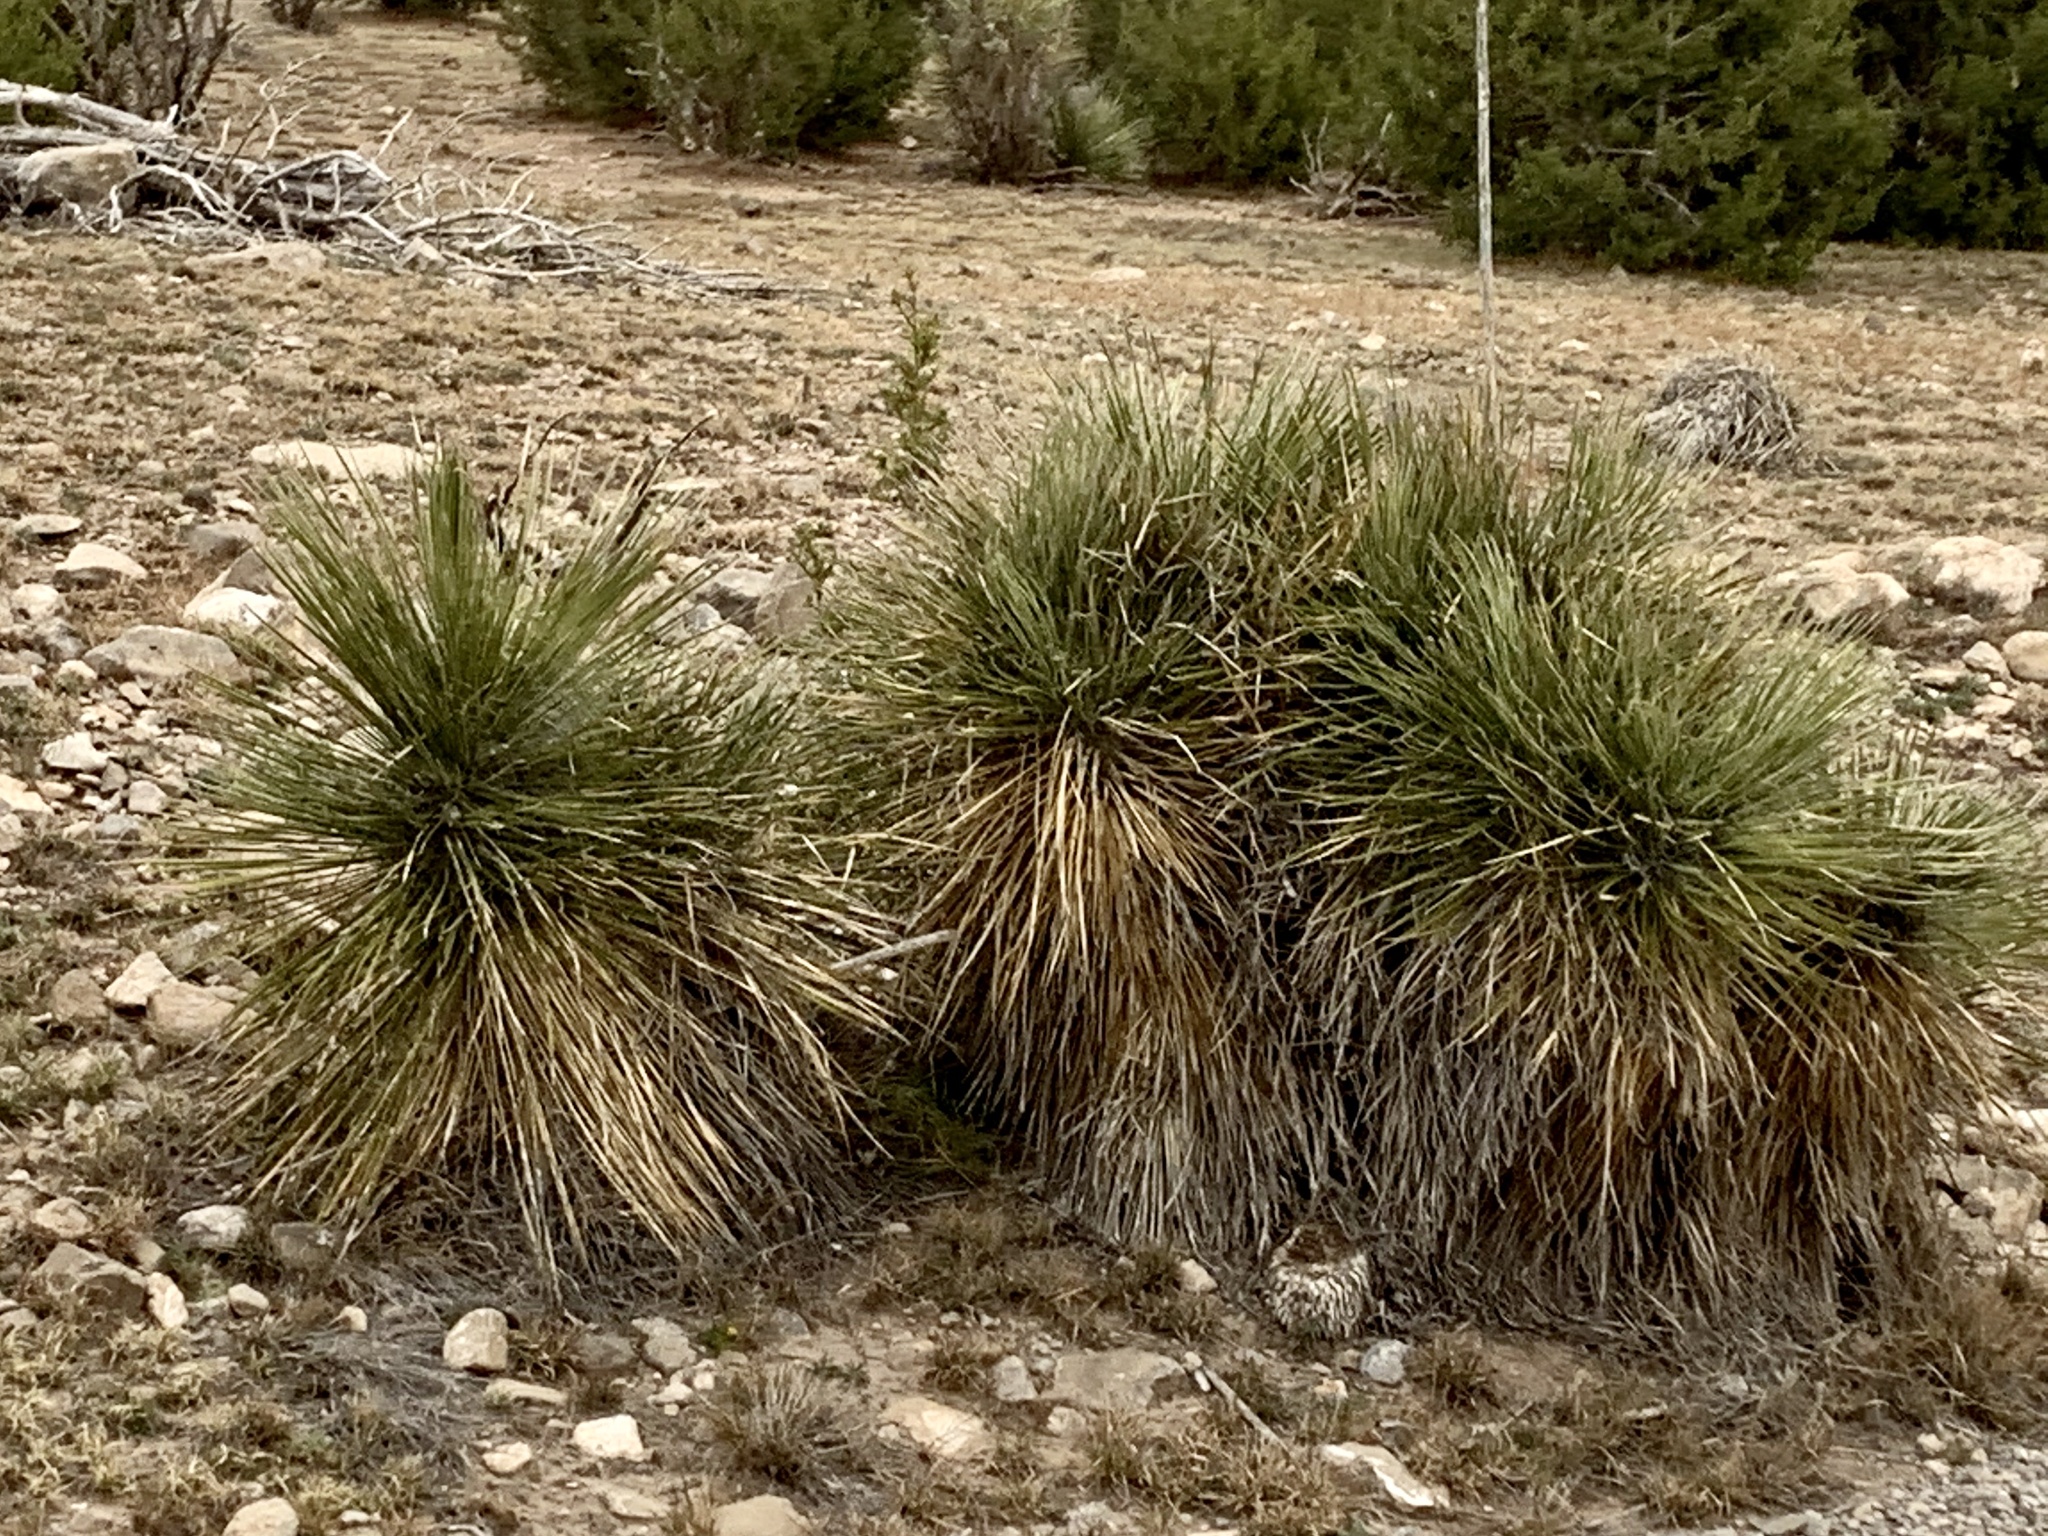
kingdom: Plantae
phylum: Tracheophyta
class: Liliopsida
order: Asparagales
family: Asparagaceae
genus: Yucca
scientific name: Yucca elata
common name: Palmella
